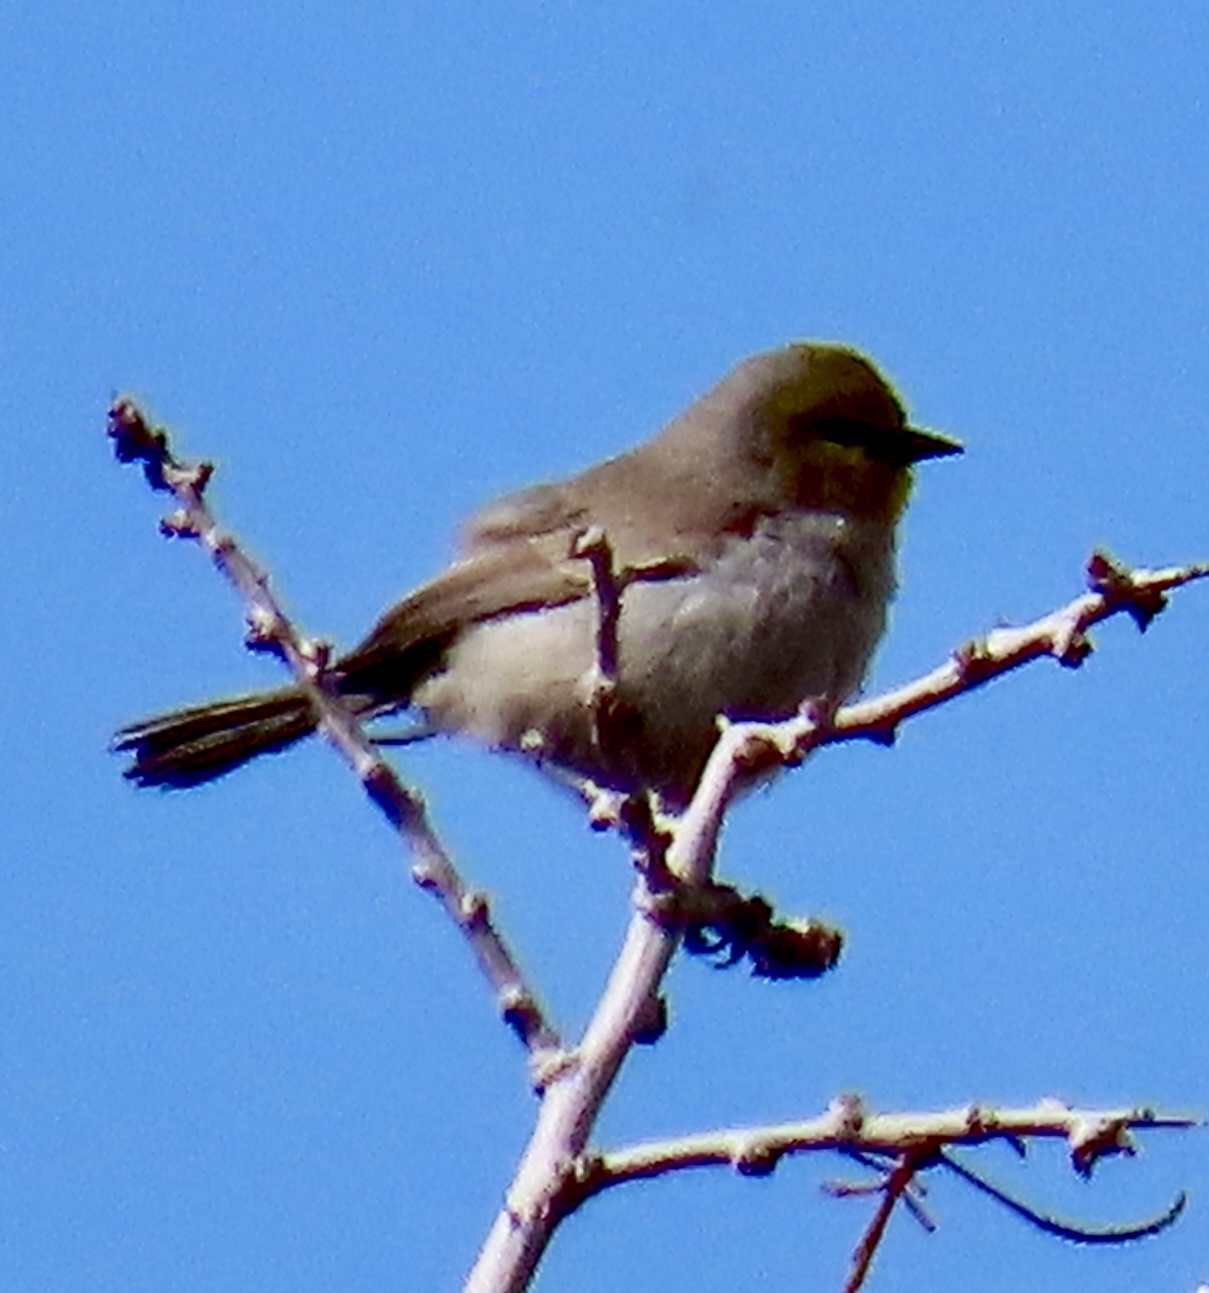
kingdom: Animalia
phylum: Chordata
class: Aves
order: Passeriformes
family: Remizidae
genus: Auriparus
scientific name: Auriparus flaviceps
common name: Verdin
